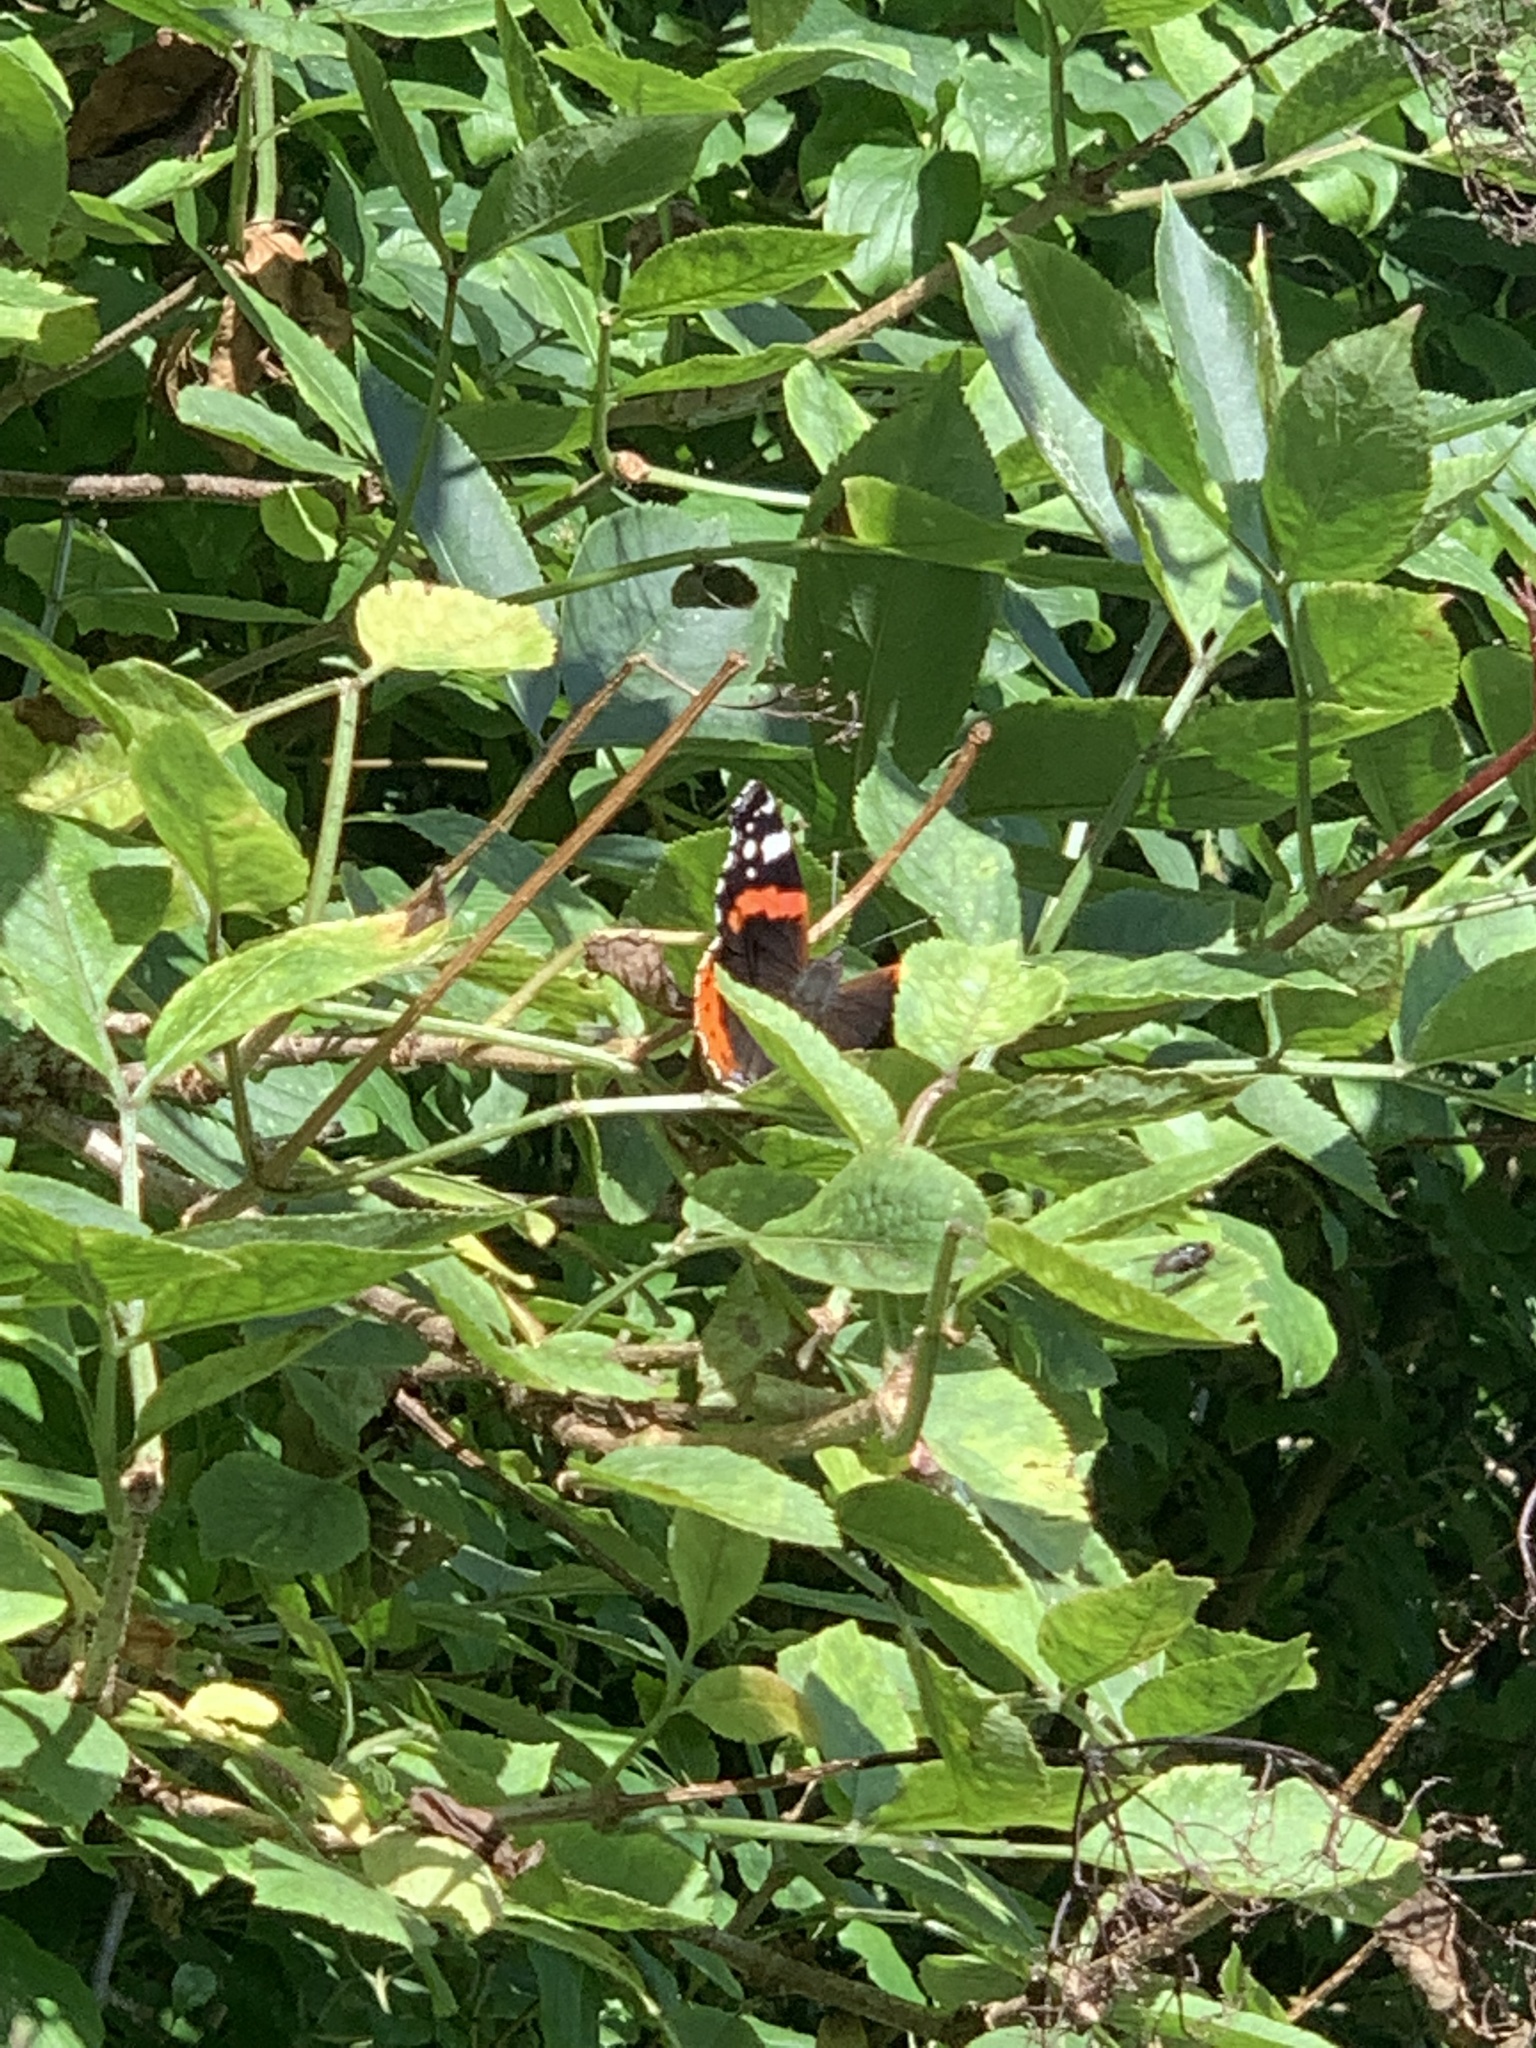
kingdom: Animalia
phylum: Arthropoda
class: Insecta
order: Lepidoptera
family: Nymphalidae
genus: Vanessa
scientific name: Vanessa atalanta
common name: Red admiral
